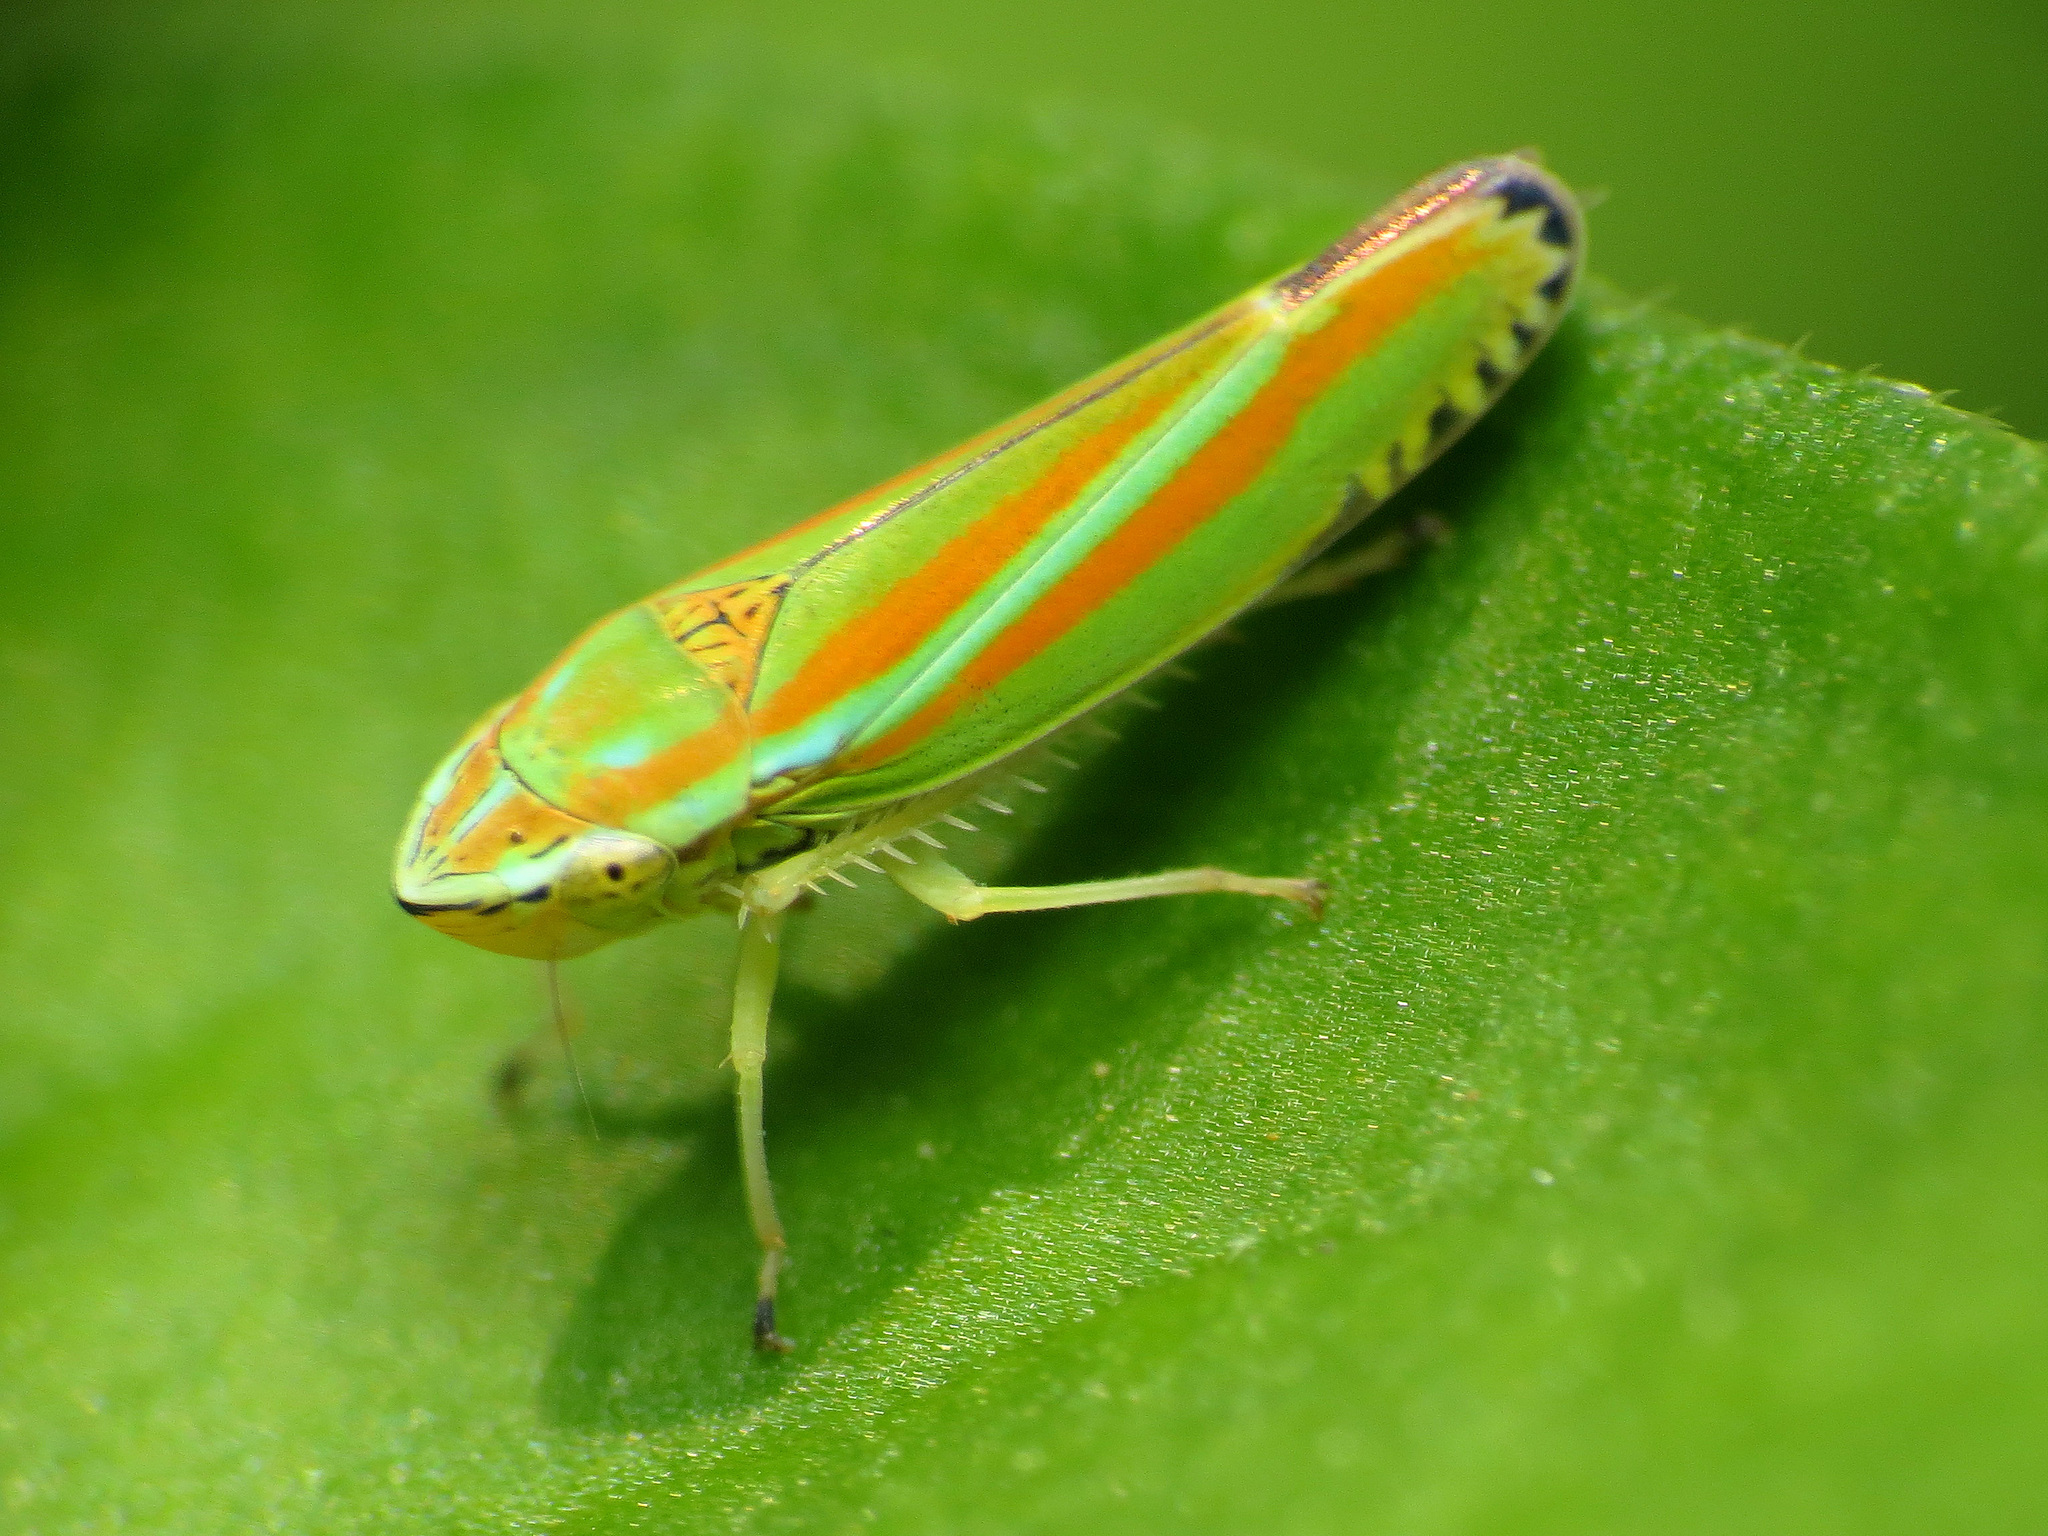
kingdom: Animalia
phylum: Arthropoda
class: Insecta
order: Hemiptera
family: Cicadellidae
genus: Graphocephala
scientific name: Graphocephala versuta
